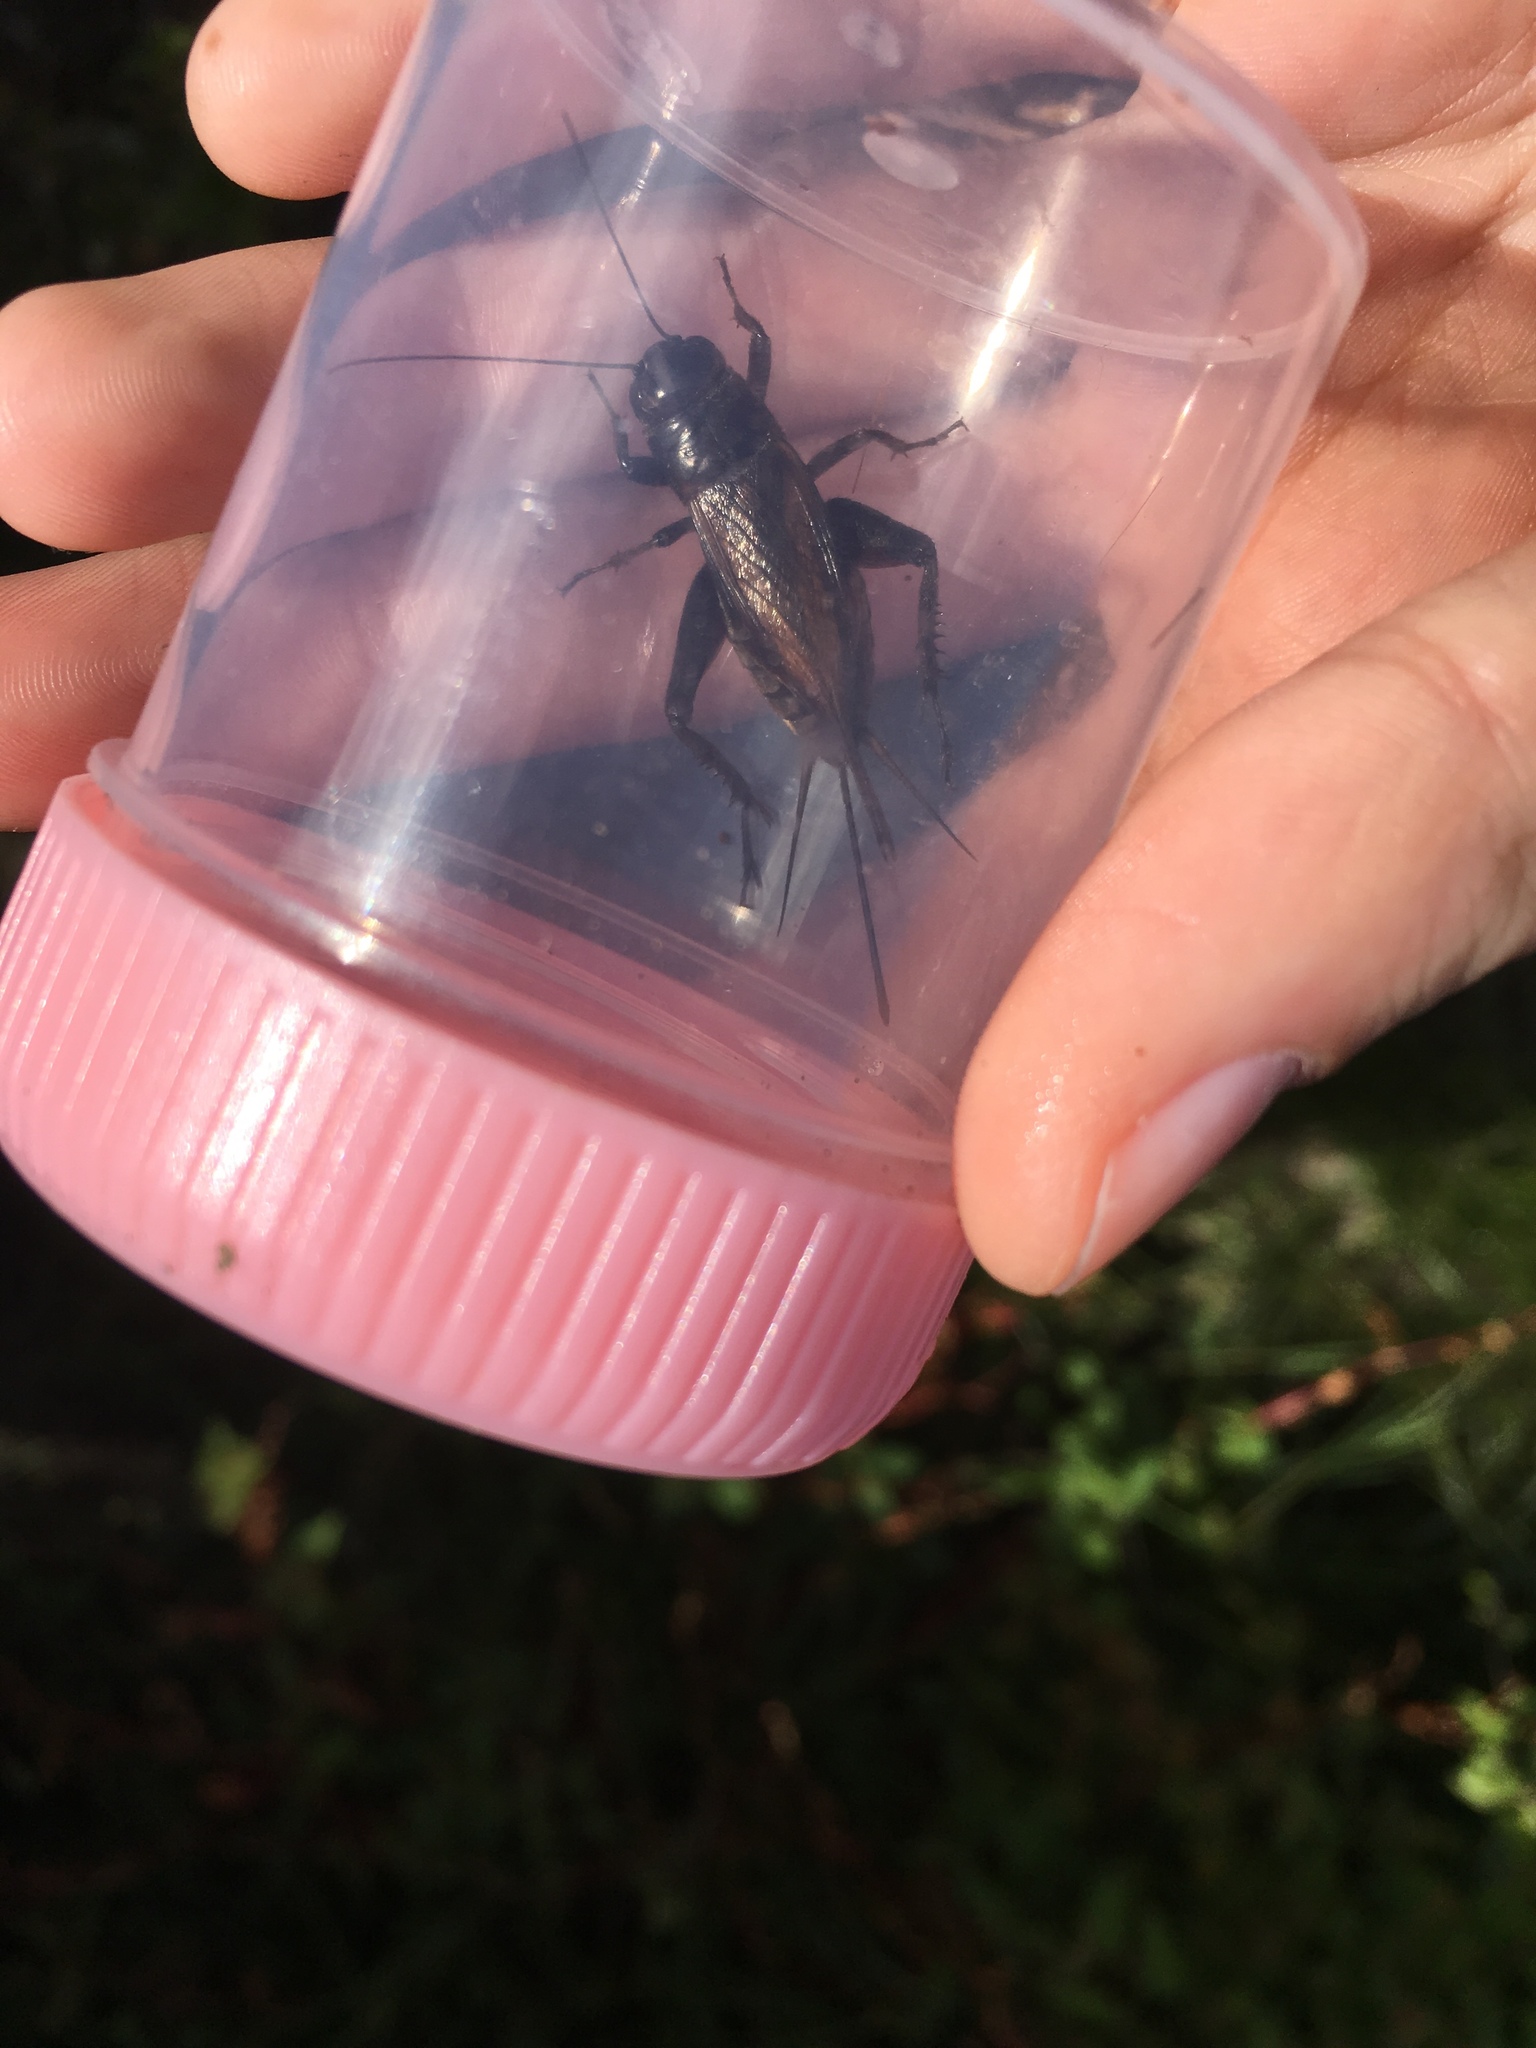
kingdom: Animalia
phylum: Arthropoda
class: Insecta
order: Orthoptera
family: Gryllidae
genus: Teleogryllus
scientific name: Teleogryllus commodus
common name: Black field cricket
